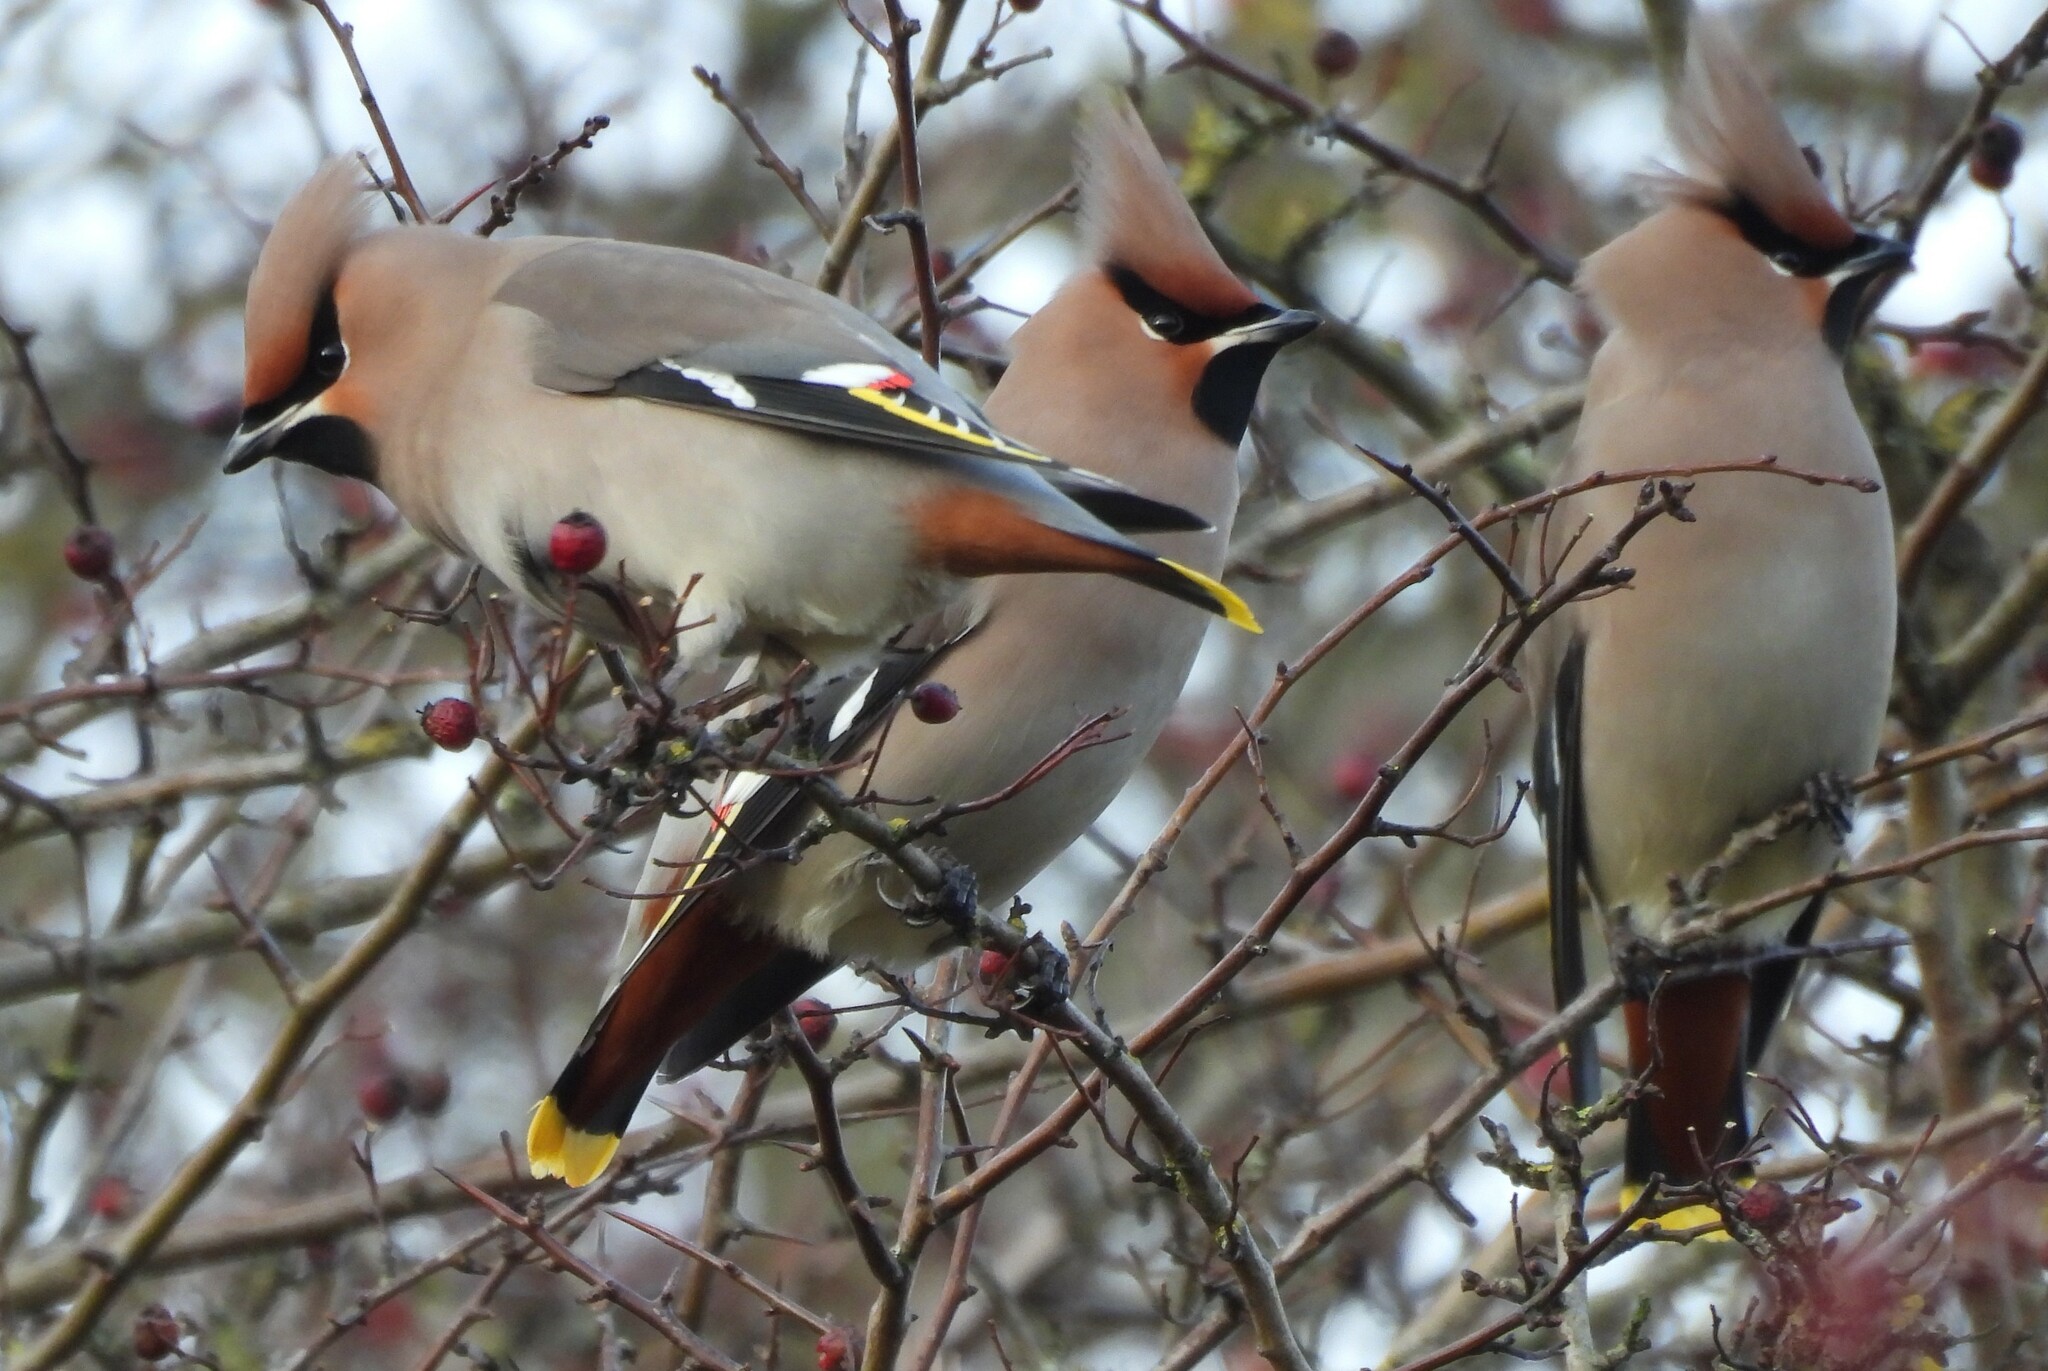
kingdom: Animalia
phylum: Chordata
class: Aves
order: Passeriformes
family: Bombycillidae
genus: Bombycilla
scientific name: Bombycilla garrulus
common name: Bohemian waxwing
